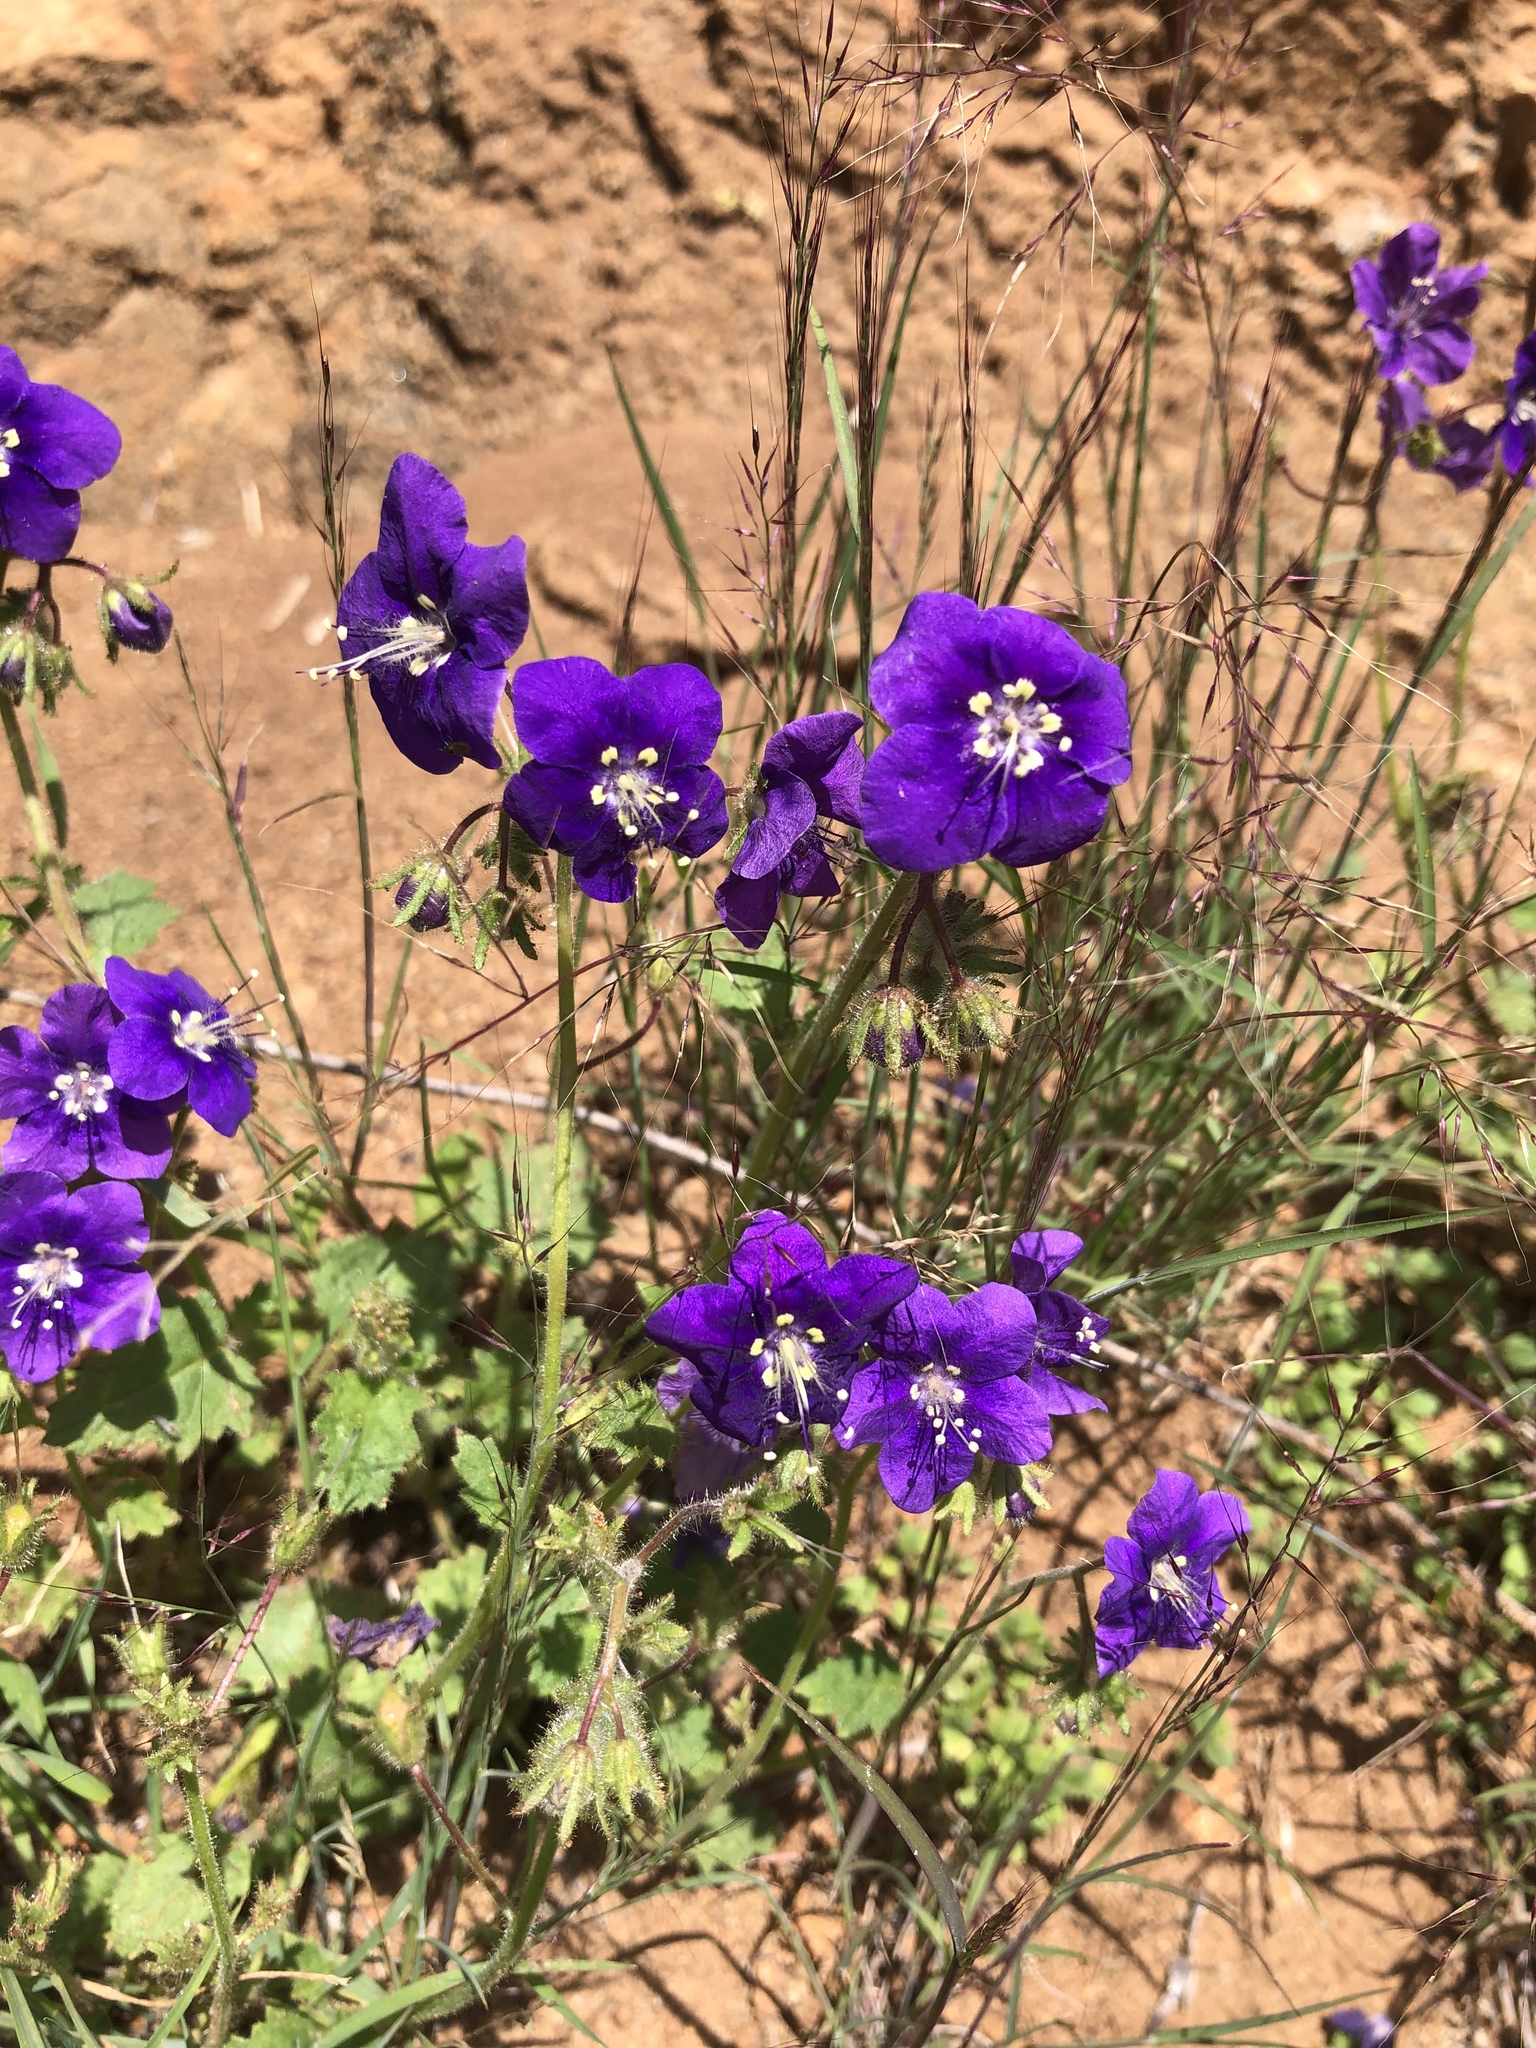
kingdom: Plantae
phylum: Tracheophyta
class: Magnoliopsida
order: Boraginales
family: Hydrophyllaceae
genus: Phacelia
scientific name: Phacelia parryi
